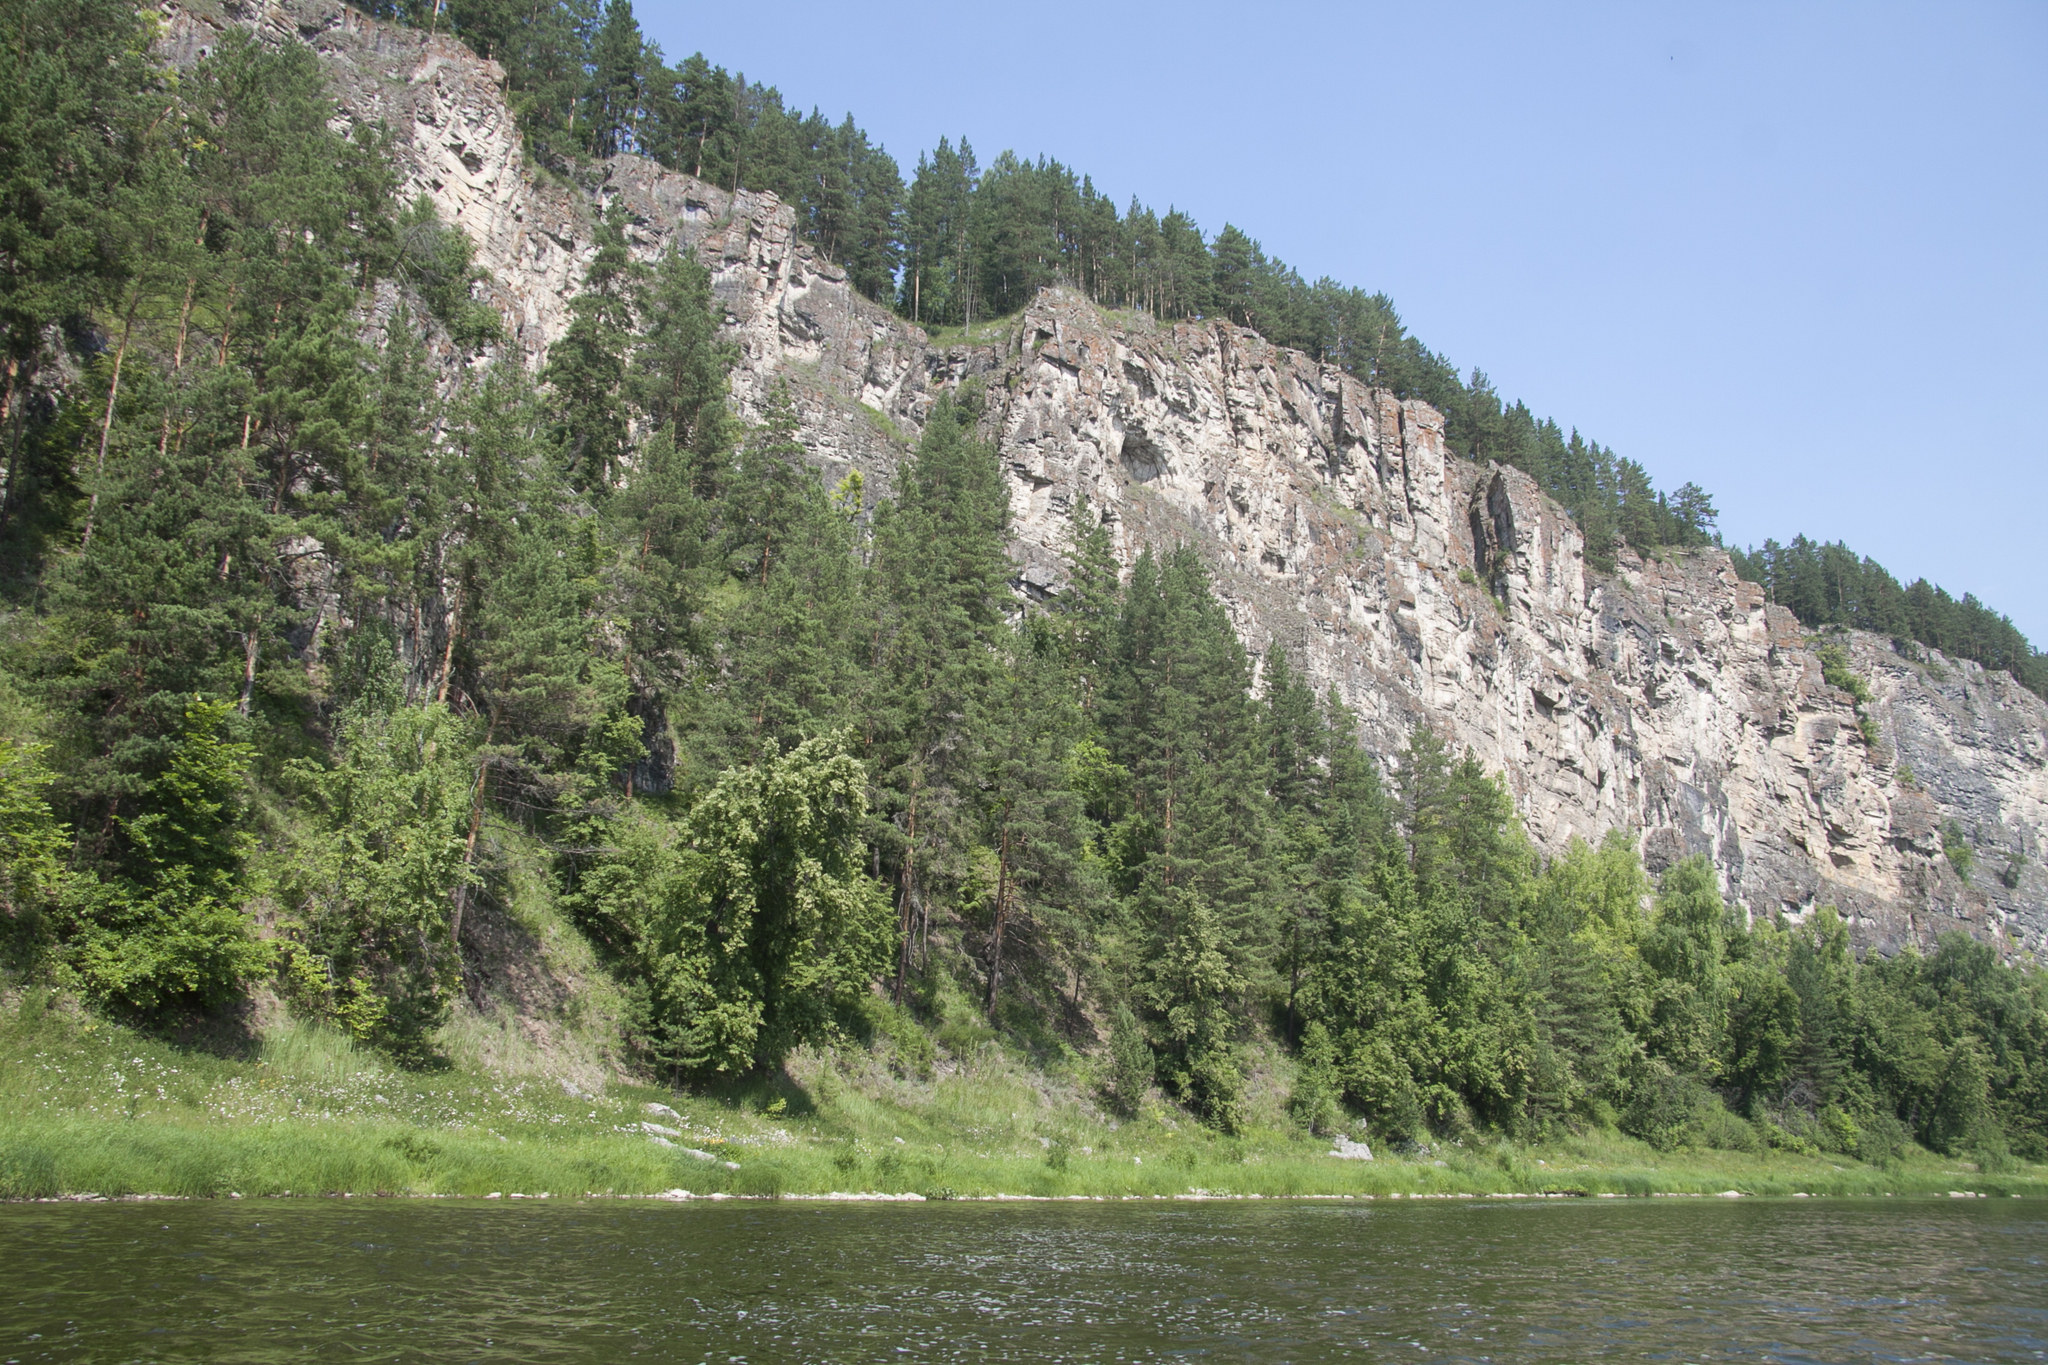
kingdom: Plantae
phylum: Tracheophyta
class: Pinopsida
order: Pinales
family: Pinaceae
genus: Pinus
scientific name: Pinus sylvestris
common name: Scots pine
